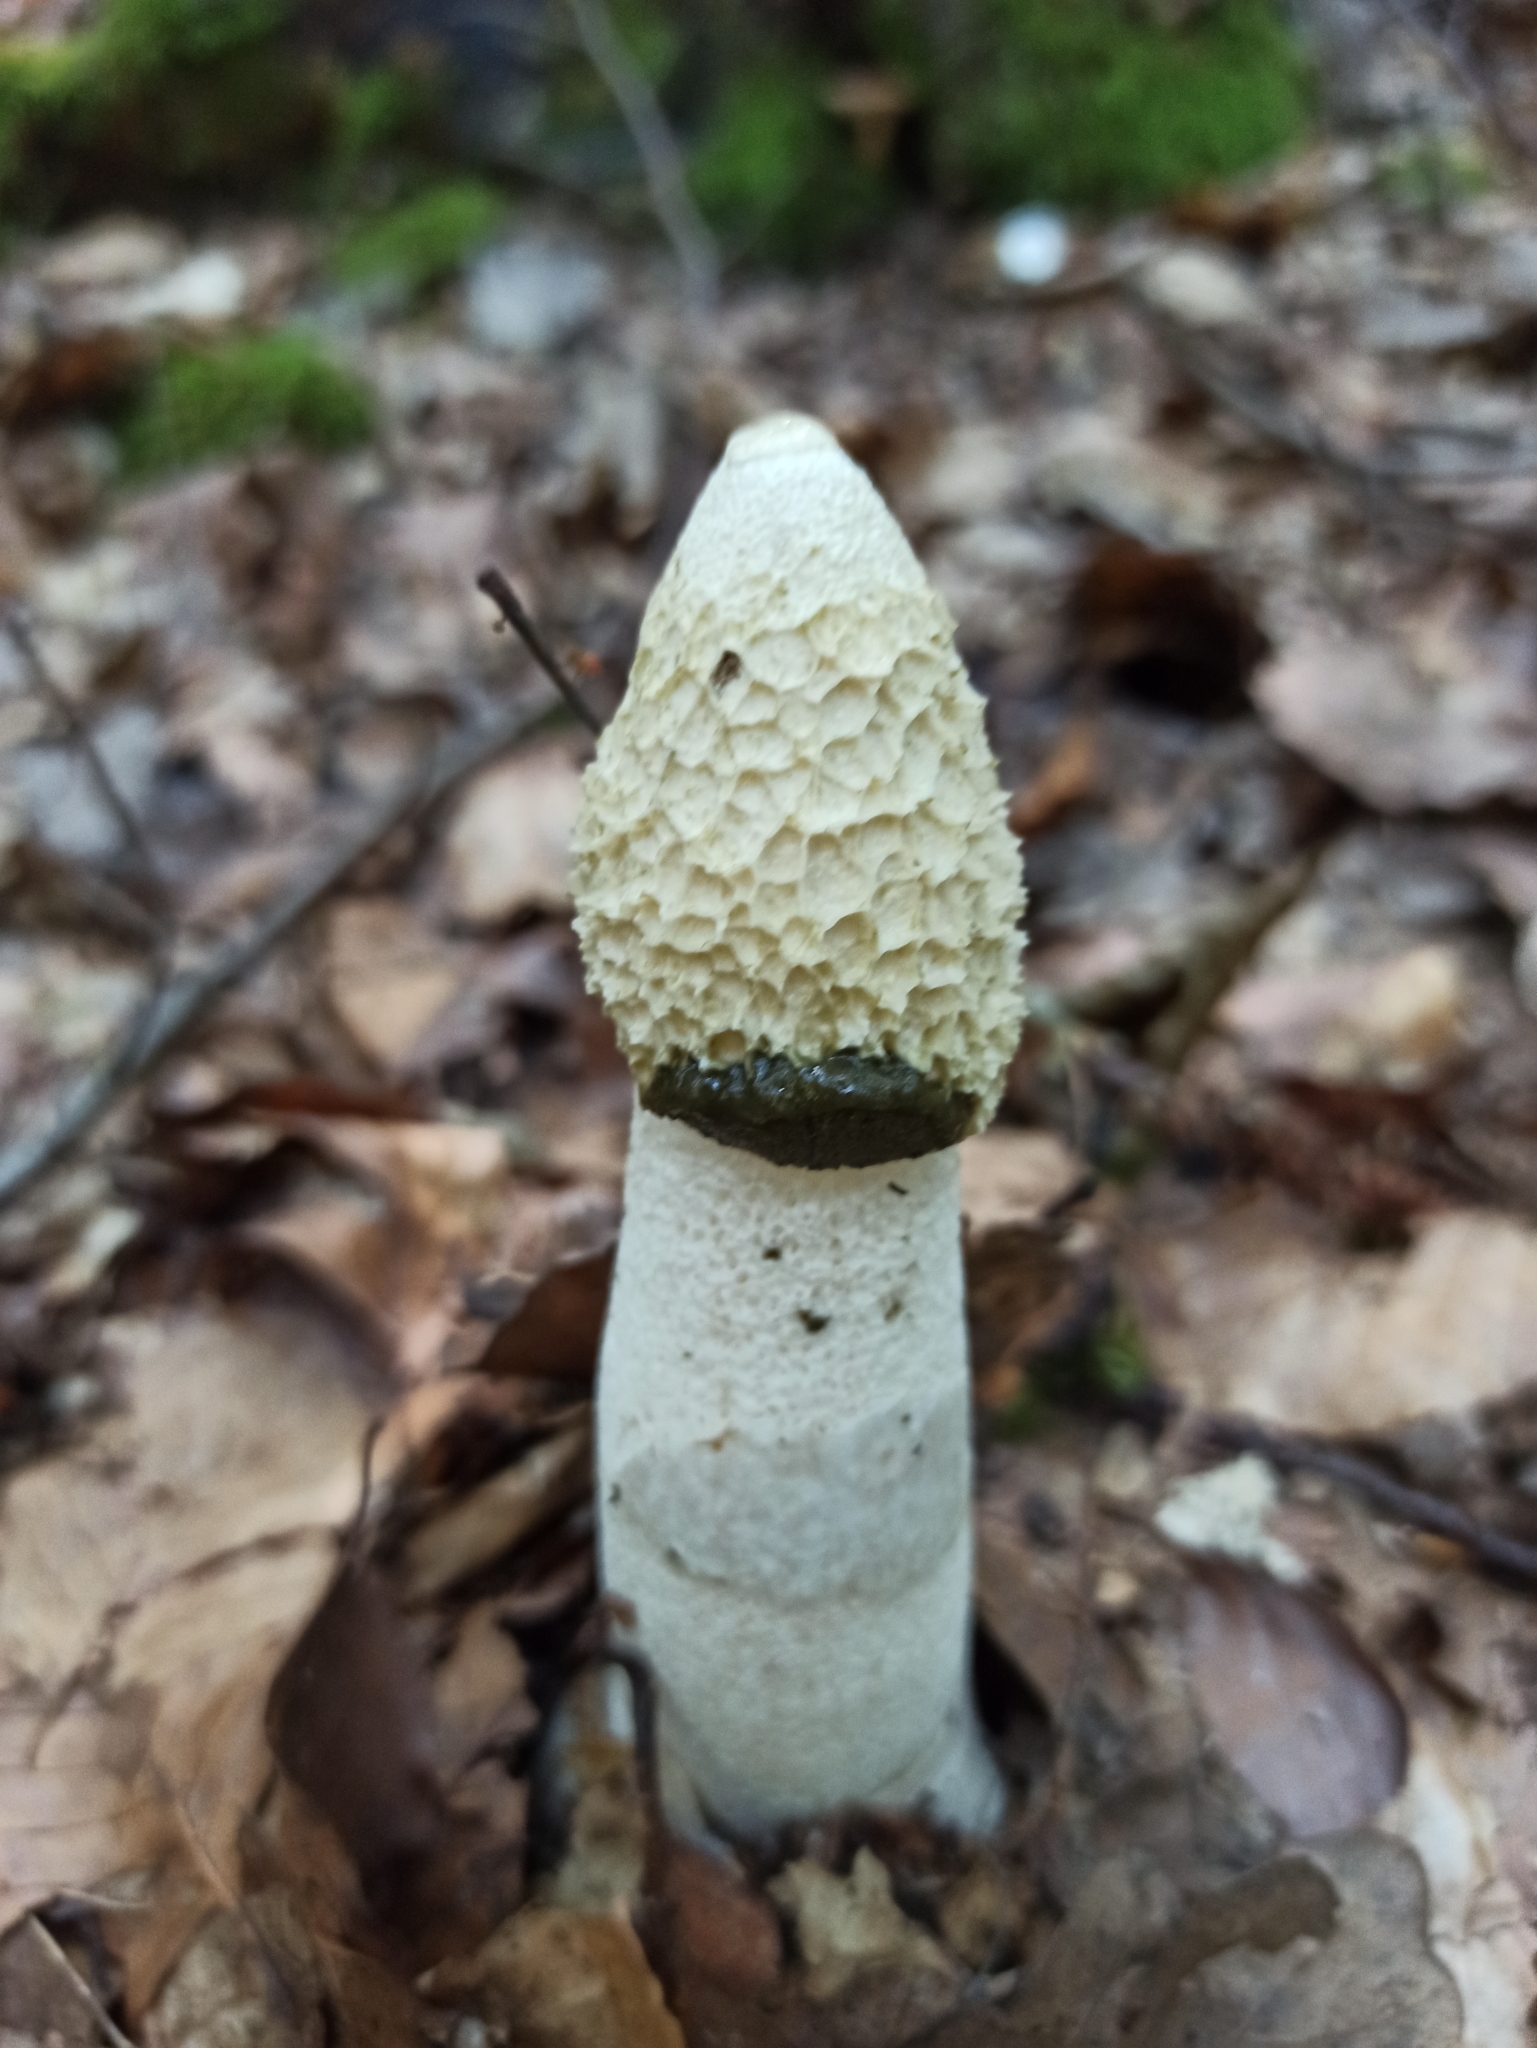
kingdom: Fungi
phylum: Basidiomycota
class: Agaricomycetes
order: Phallales
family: Phallaceae
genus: Phallus
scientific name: Phallus impudicus
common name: Common stinkhorn
